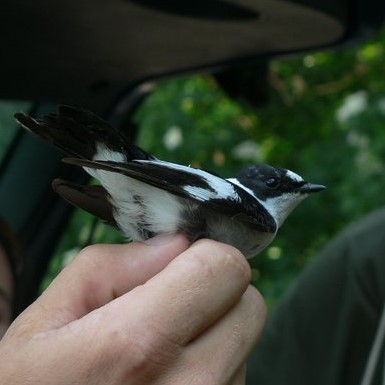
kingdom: Animalia
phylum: Chordata
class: Aves
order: Passeriformes
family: Muscicapidae
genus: Ficedula
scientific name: Ficedula albicollis
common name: Collared flycatcher
